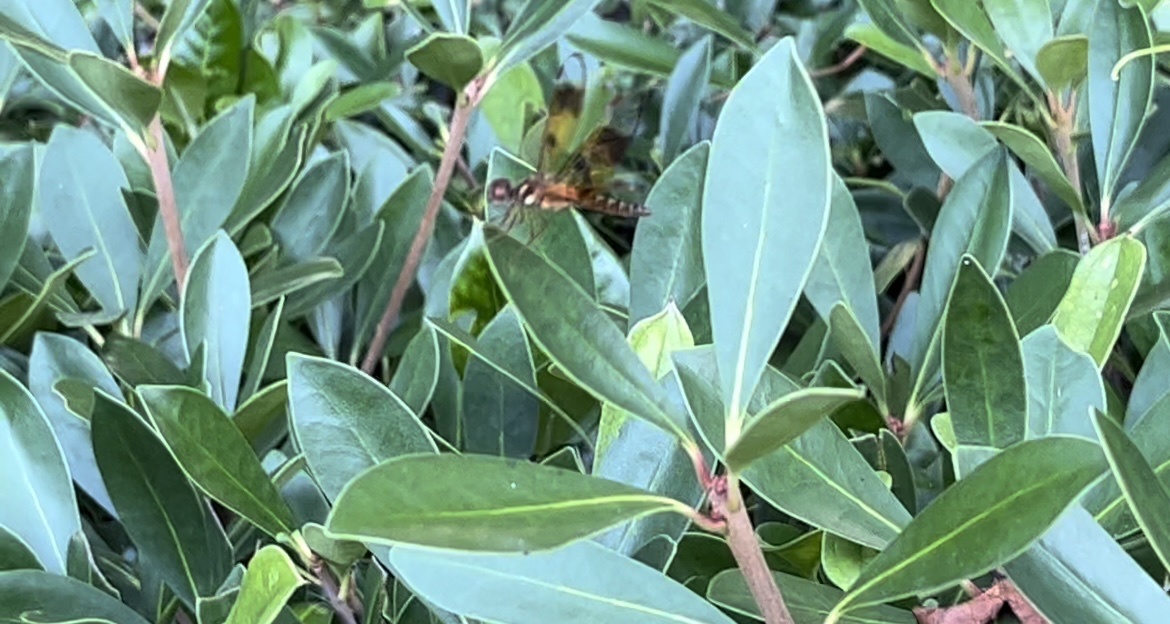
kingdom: Animalia
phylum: Arthropoda
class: Insecta
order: Odonata
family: Libellulidae
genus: Perithemis
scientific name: Perithemis tenera
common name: Eastern amberwing
